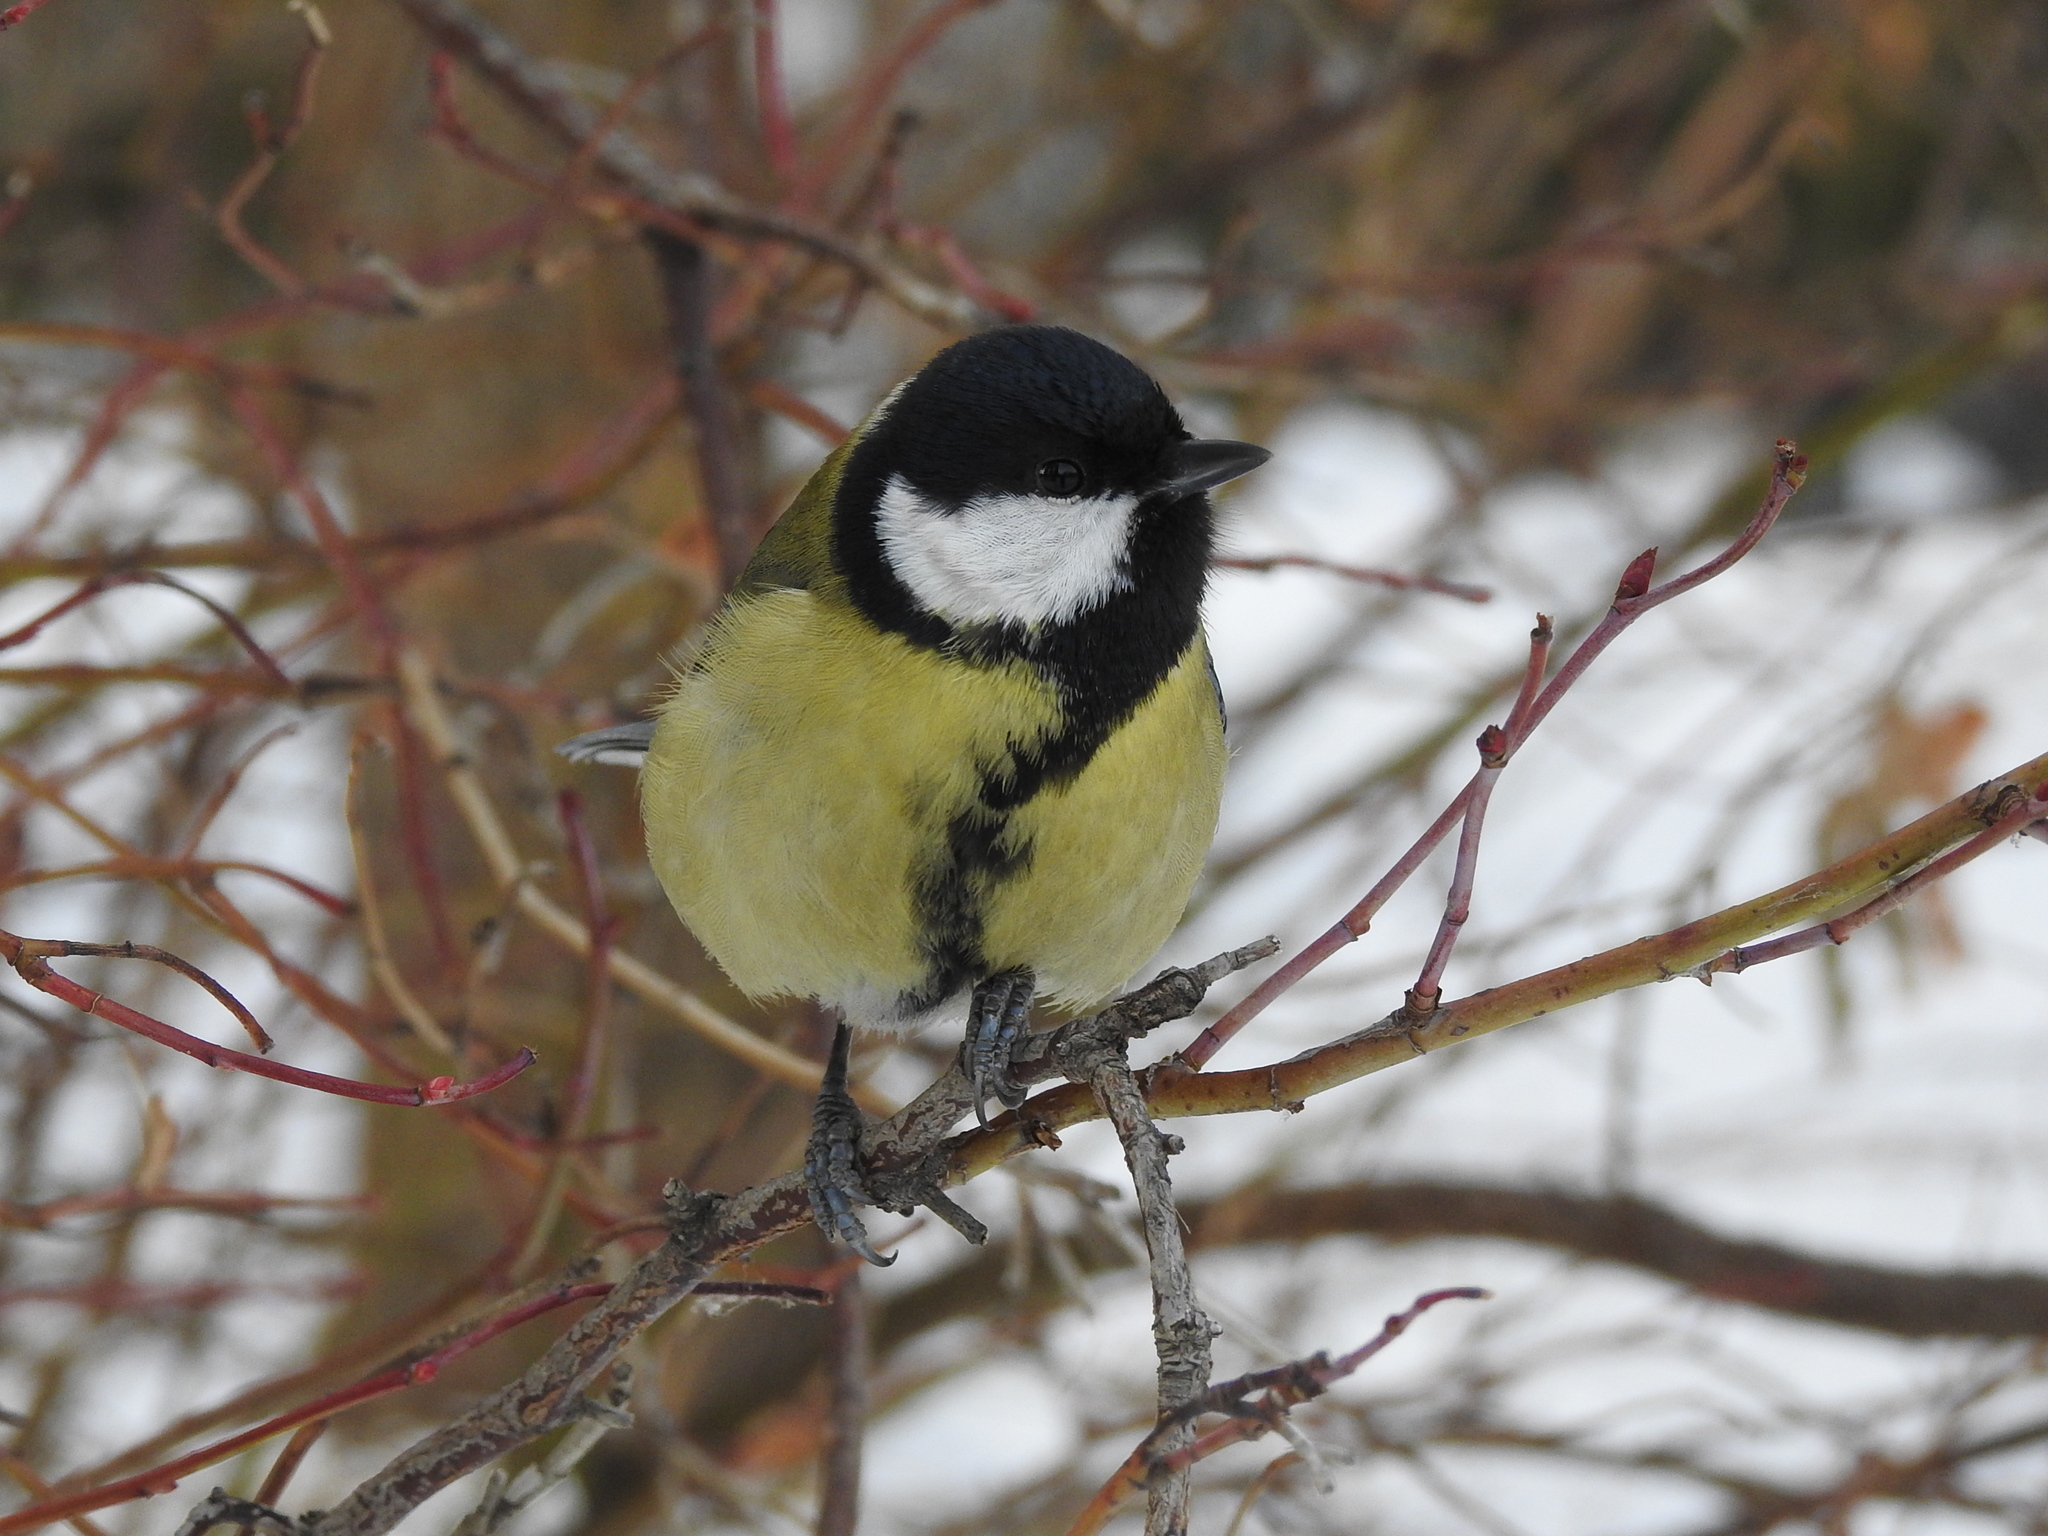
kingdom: Animalia
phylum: Chordata
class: Aves
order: Passeriformes
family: Paridae
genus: Parus
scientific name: Parus major
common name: Great tit
